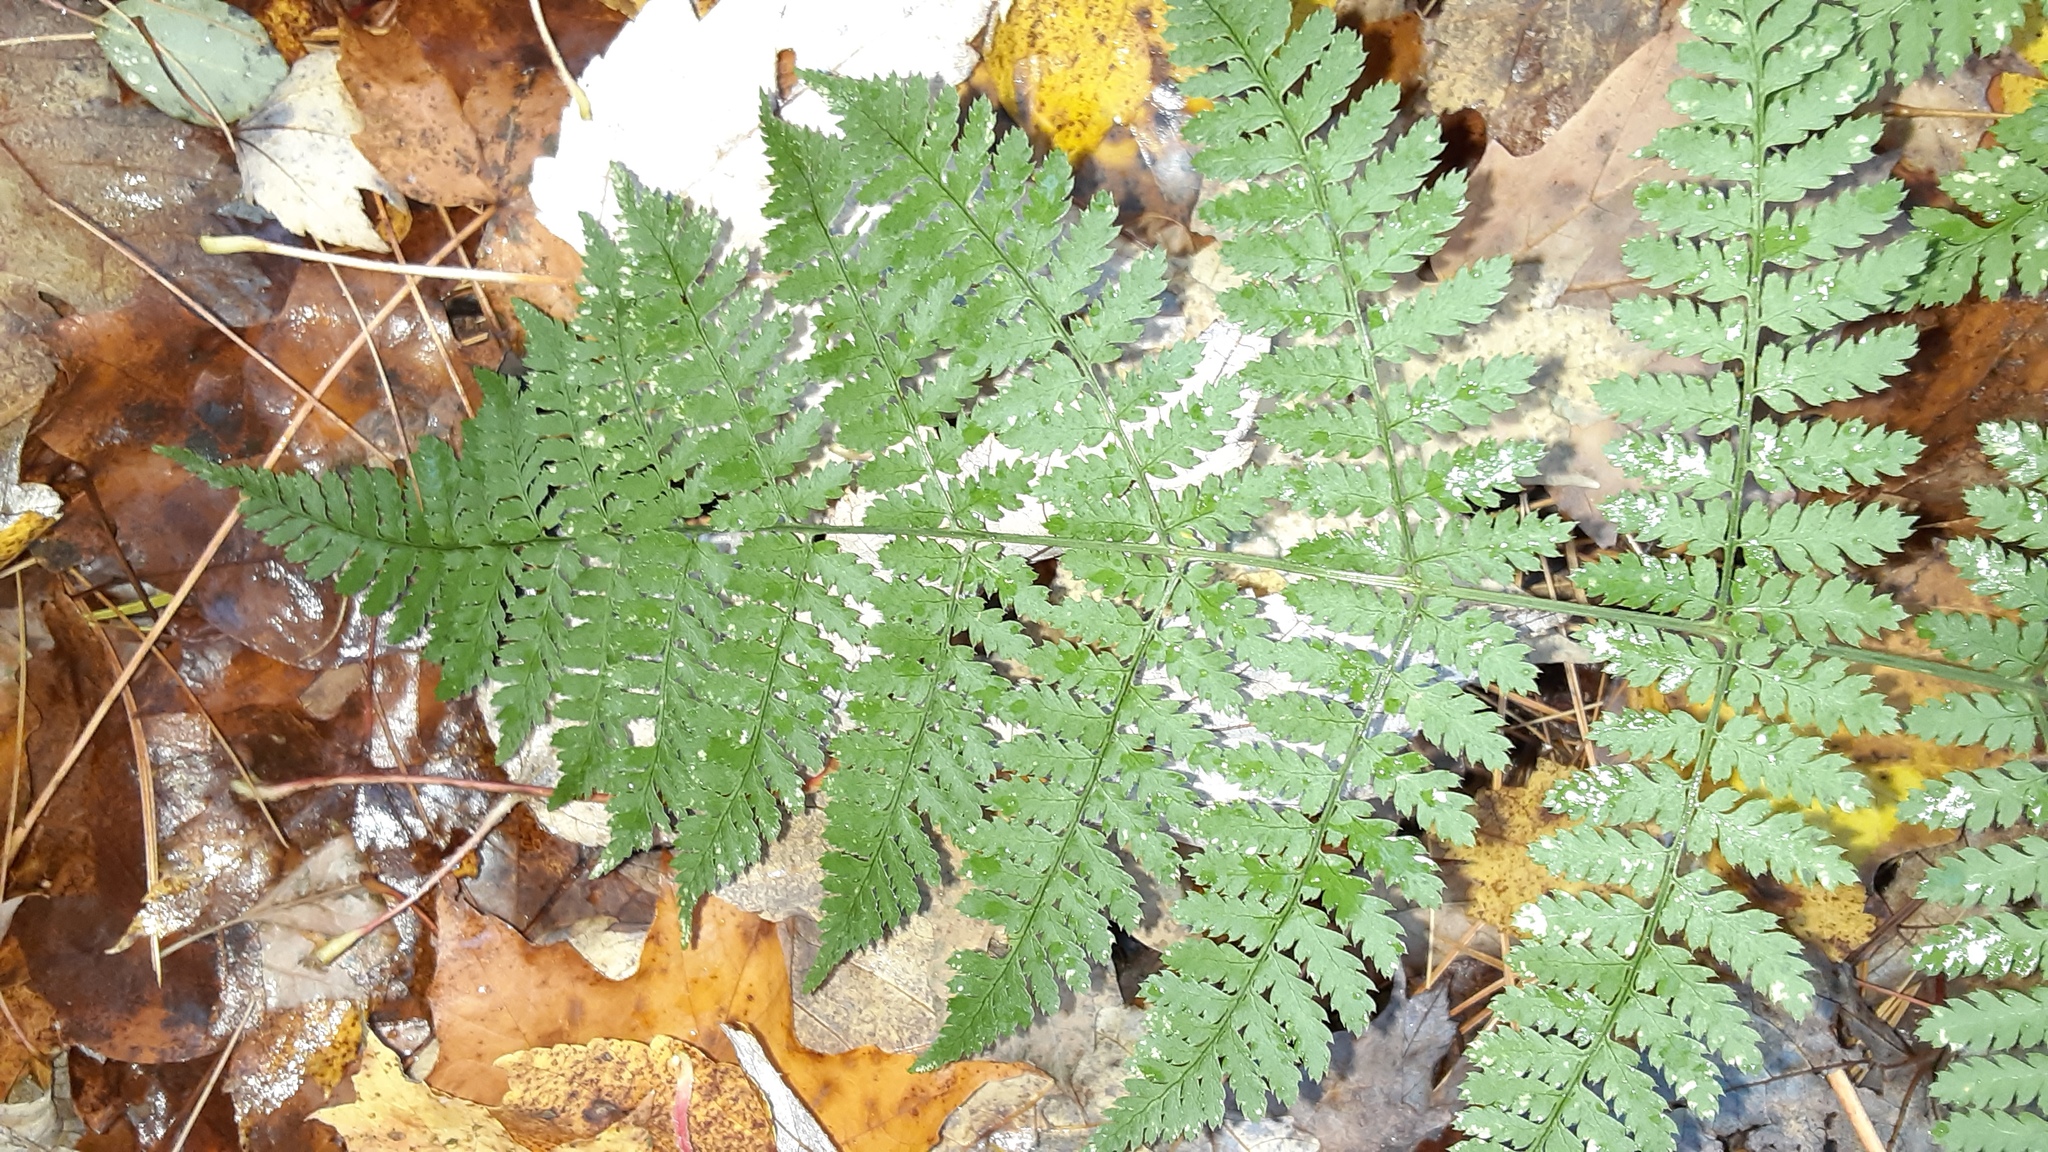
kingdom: Plantae
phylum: Tracheophyta
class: Polypodiopsida
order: Polypodiales
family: Dryopteridaceae
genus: Dryopteris
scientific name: Dryopteris intermedia
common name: Evergreen wood fern
